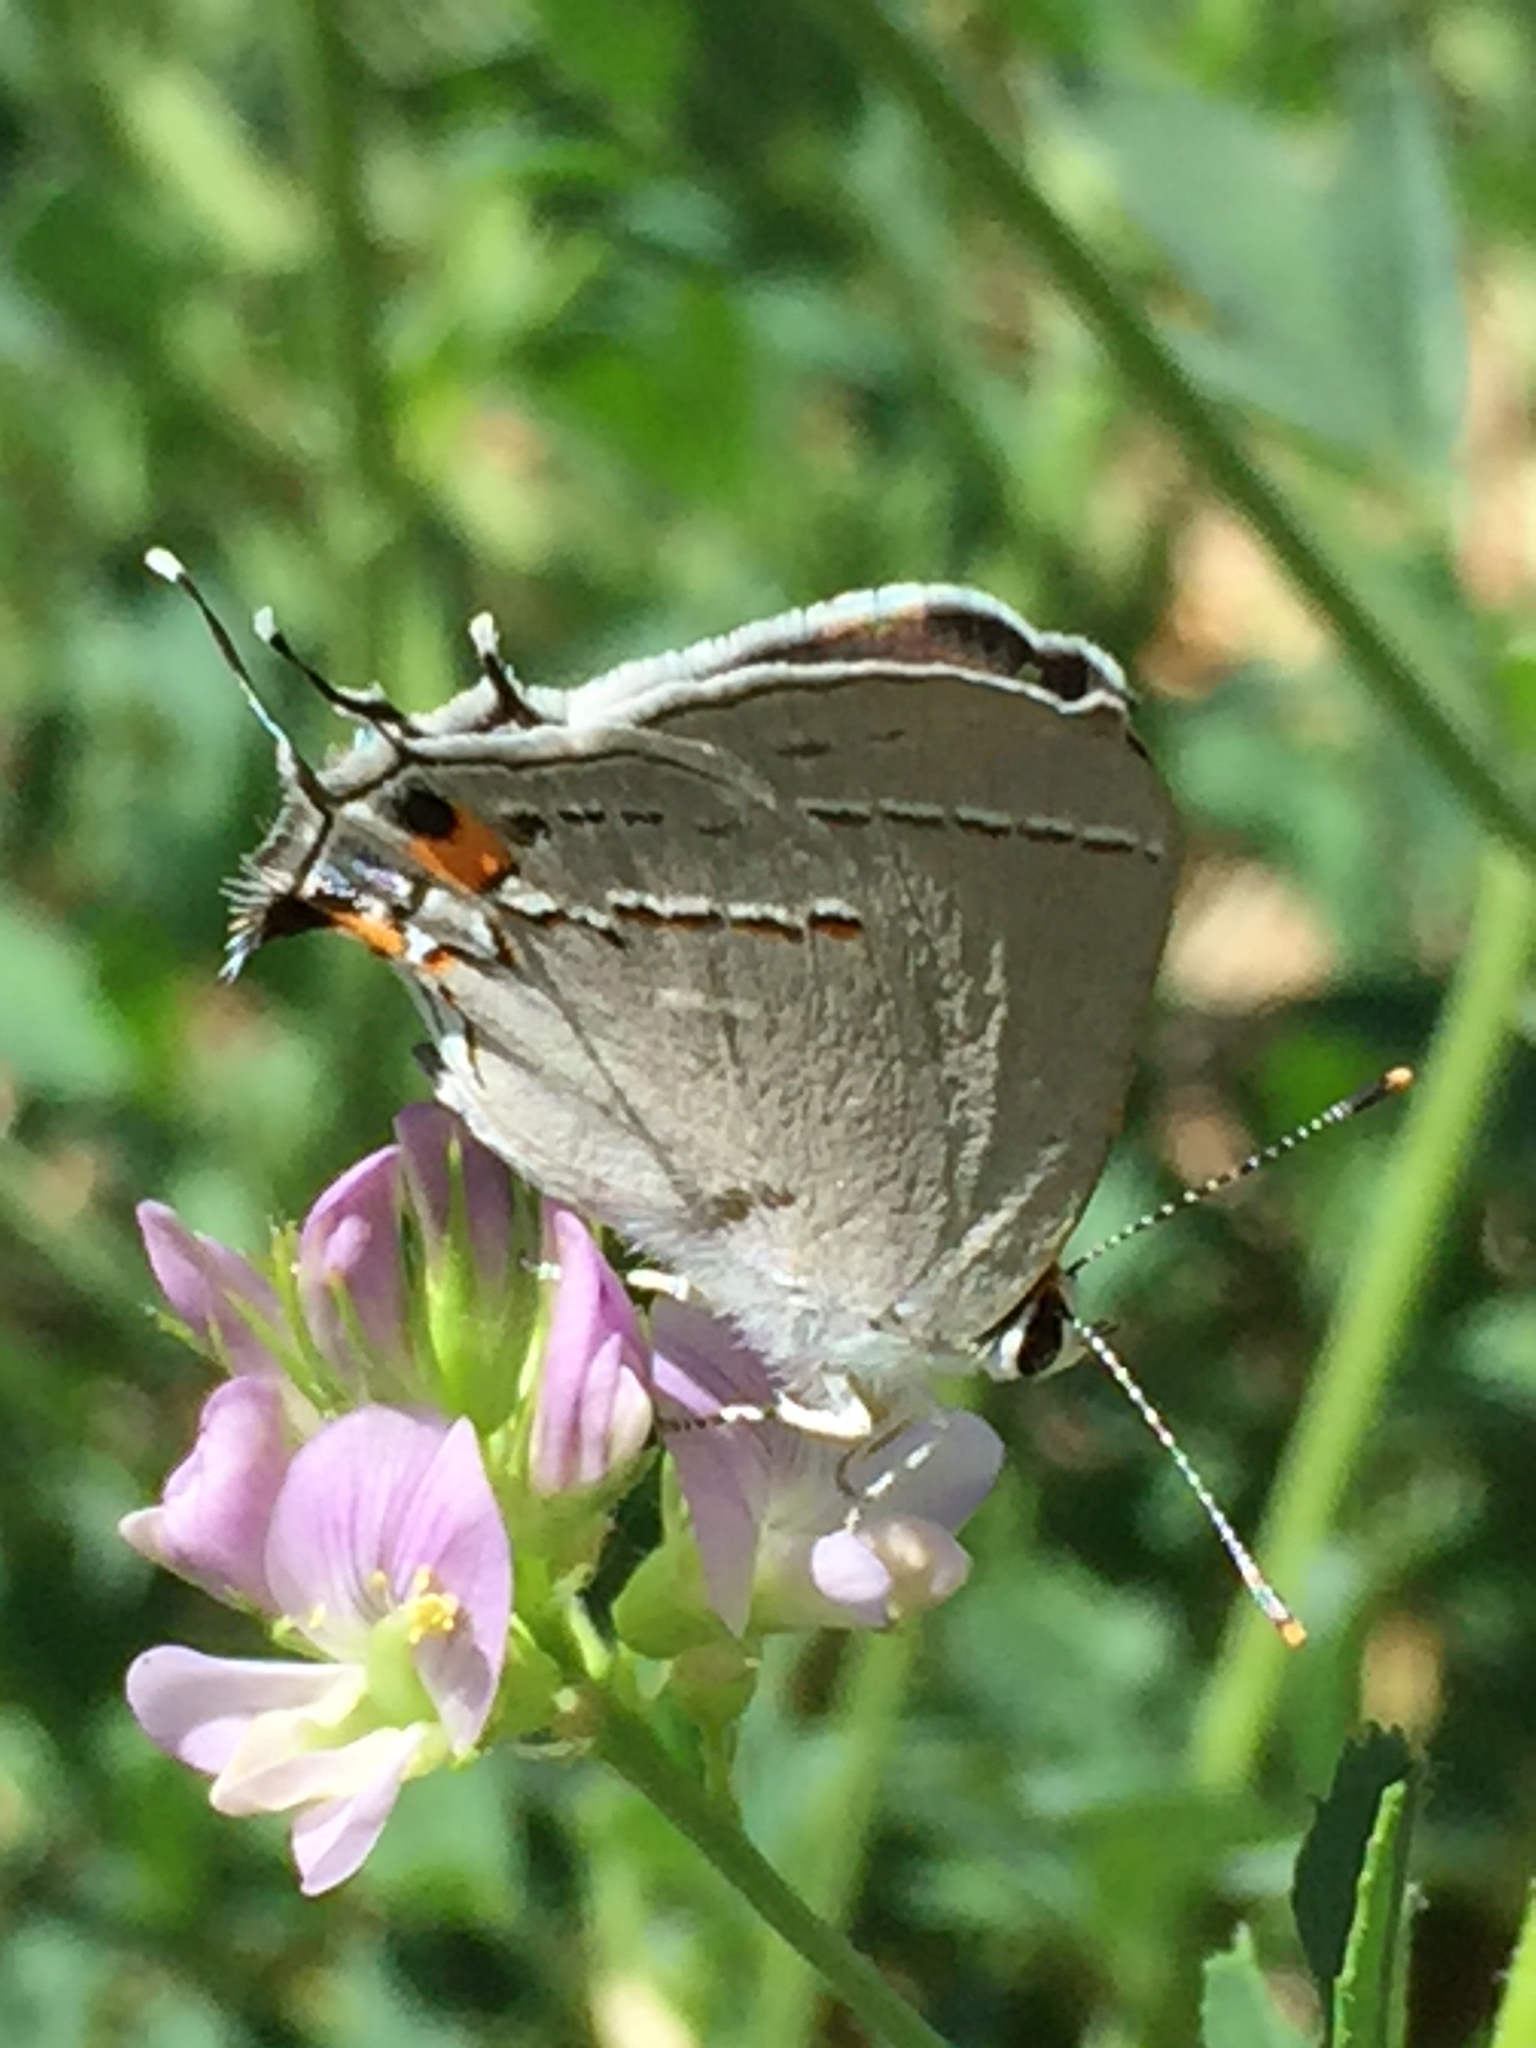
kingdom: Animalia
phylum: Arthropoda
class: Insecta
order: Lepidoptera
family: Lycaenidae
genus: Strymon
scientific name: Strymon melinus
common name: Gray hairstreak
